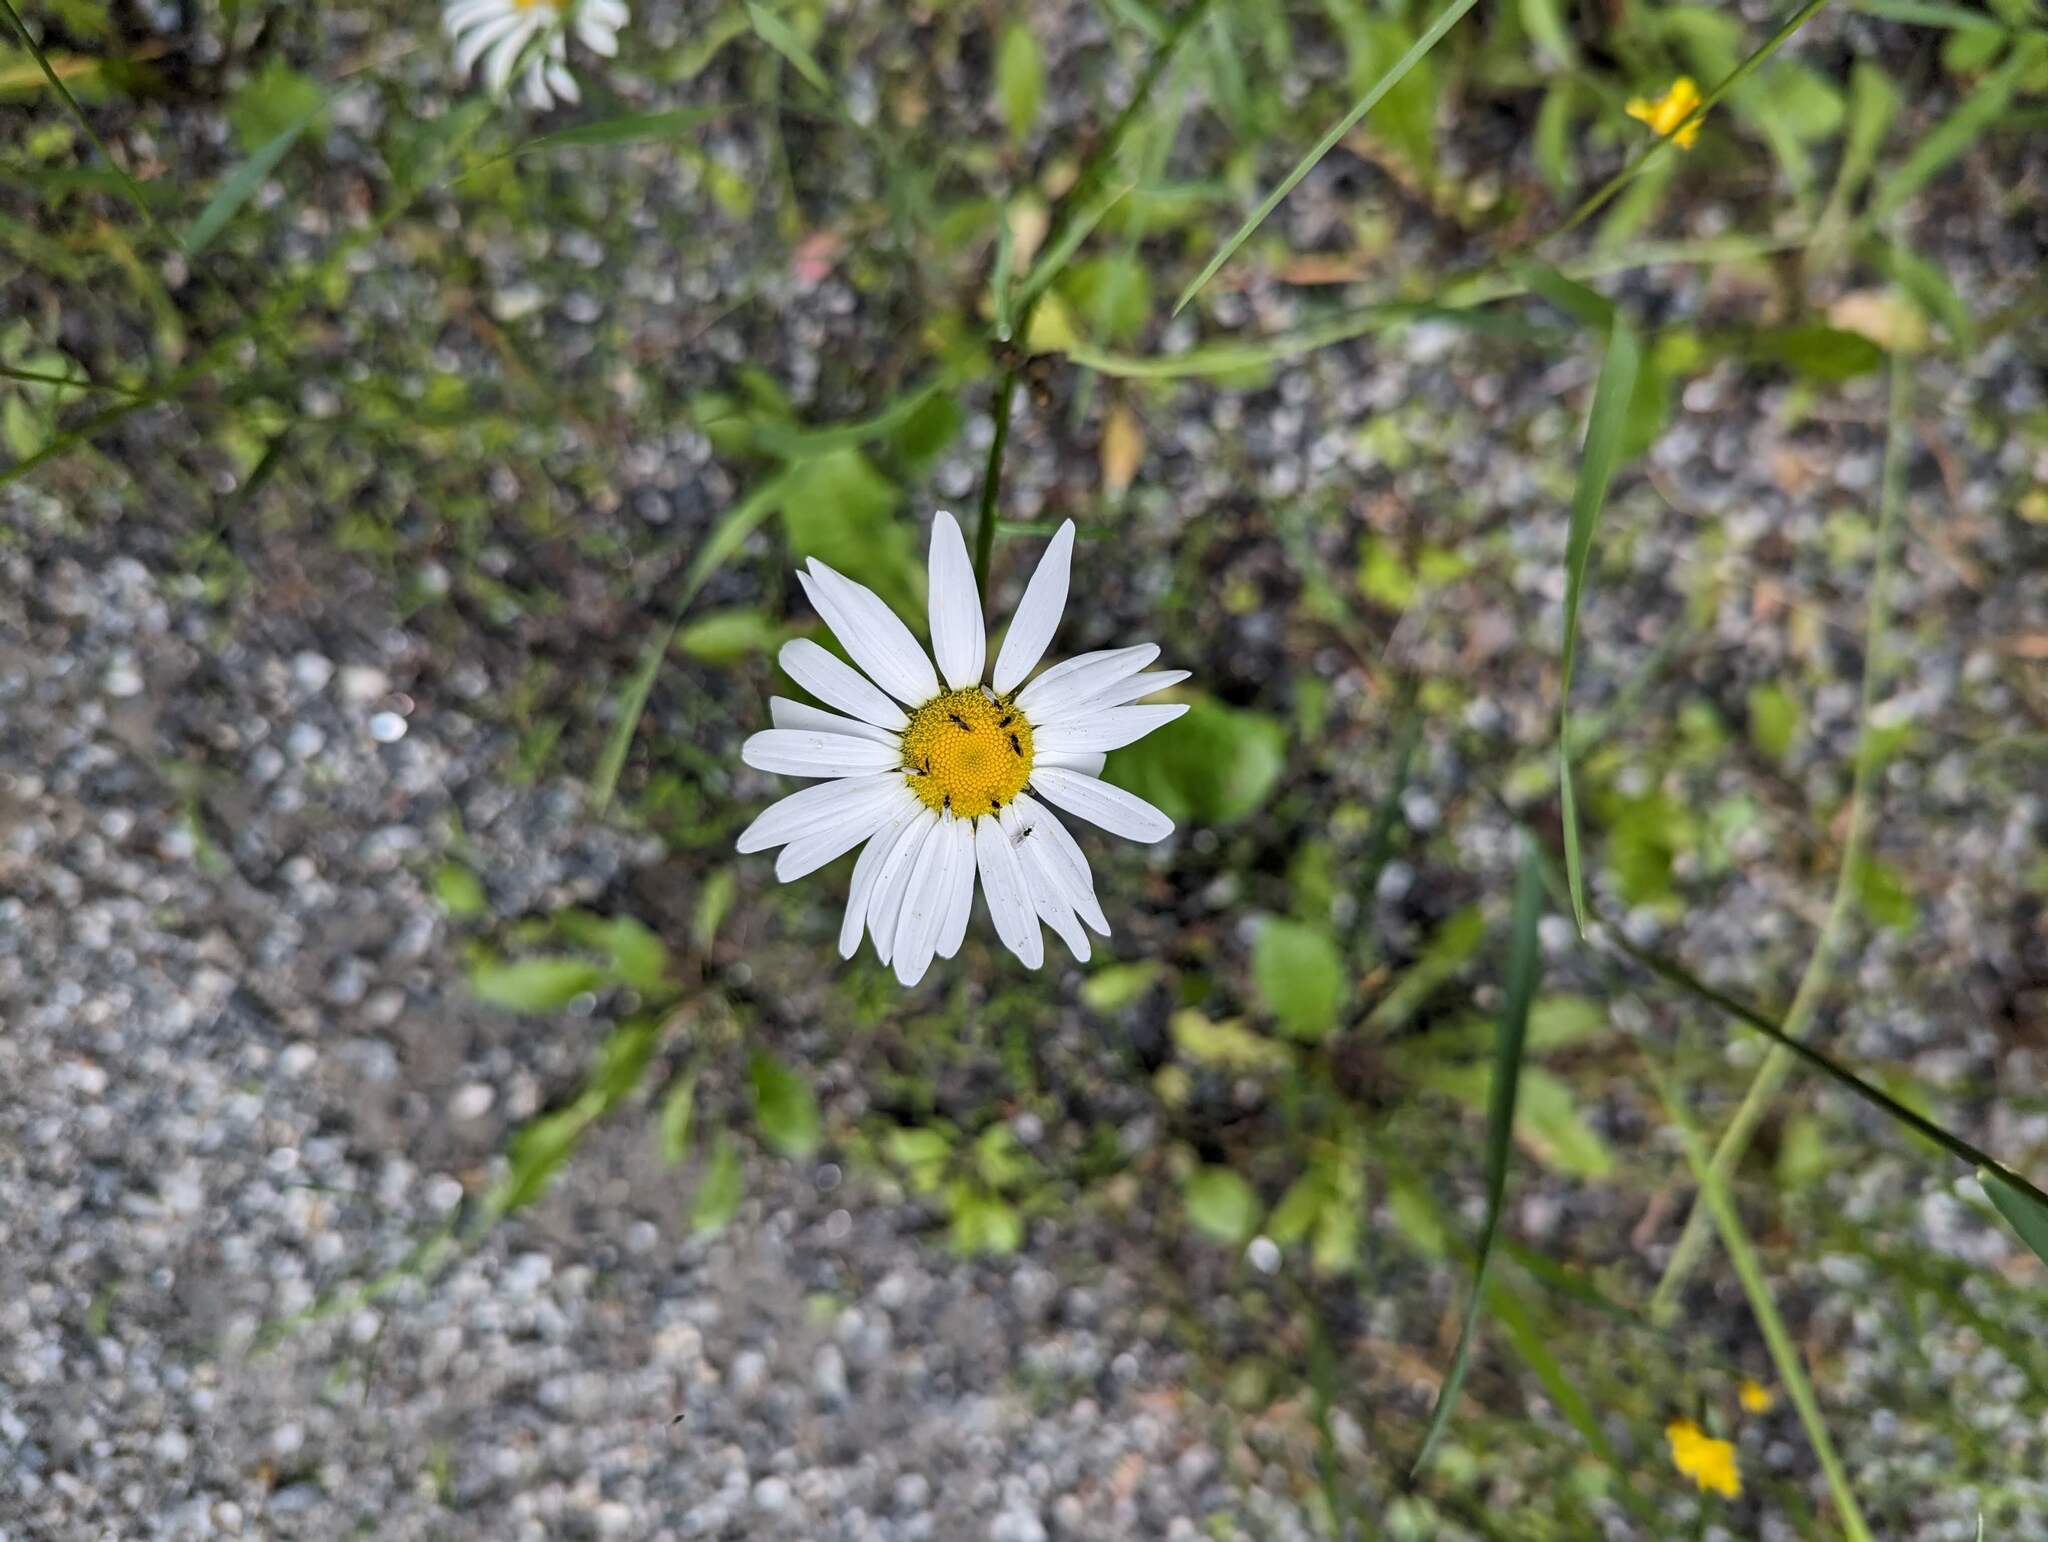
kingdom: Plantae
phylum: Tracheophyta
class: Magnoliopsida
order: Asterales
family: Asteraceae
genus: Leucanthemum
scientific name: Leucanthemum vulgare
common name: Oxeye daisy
